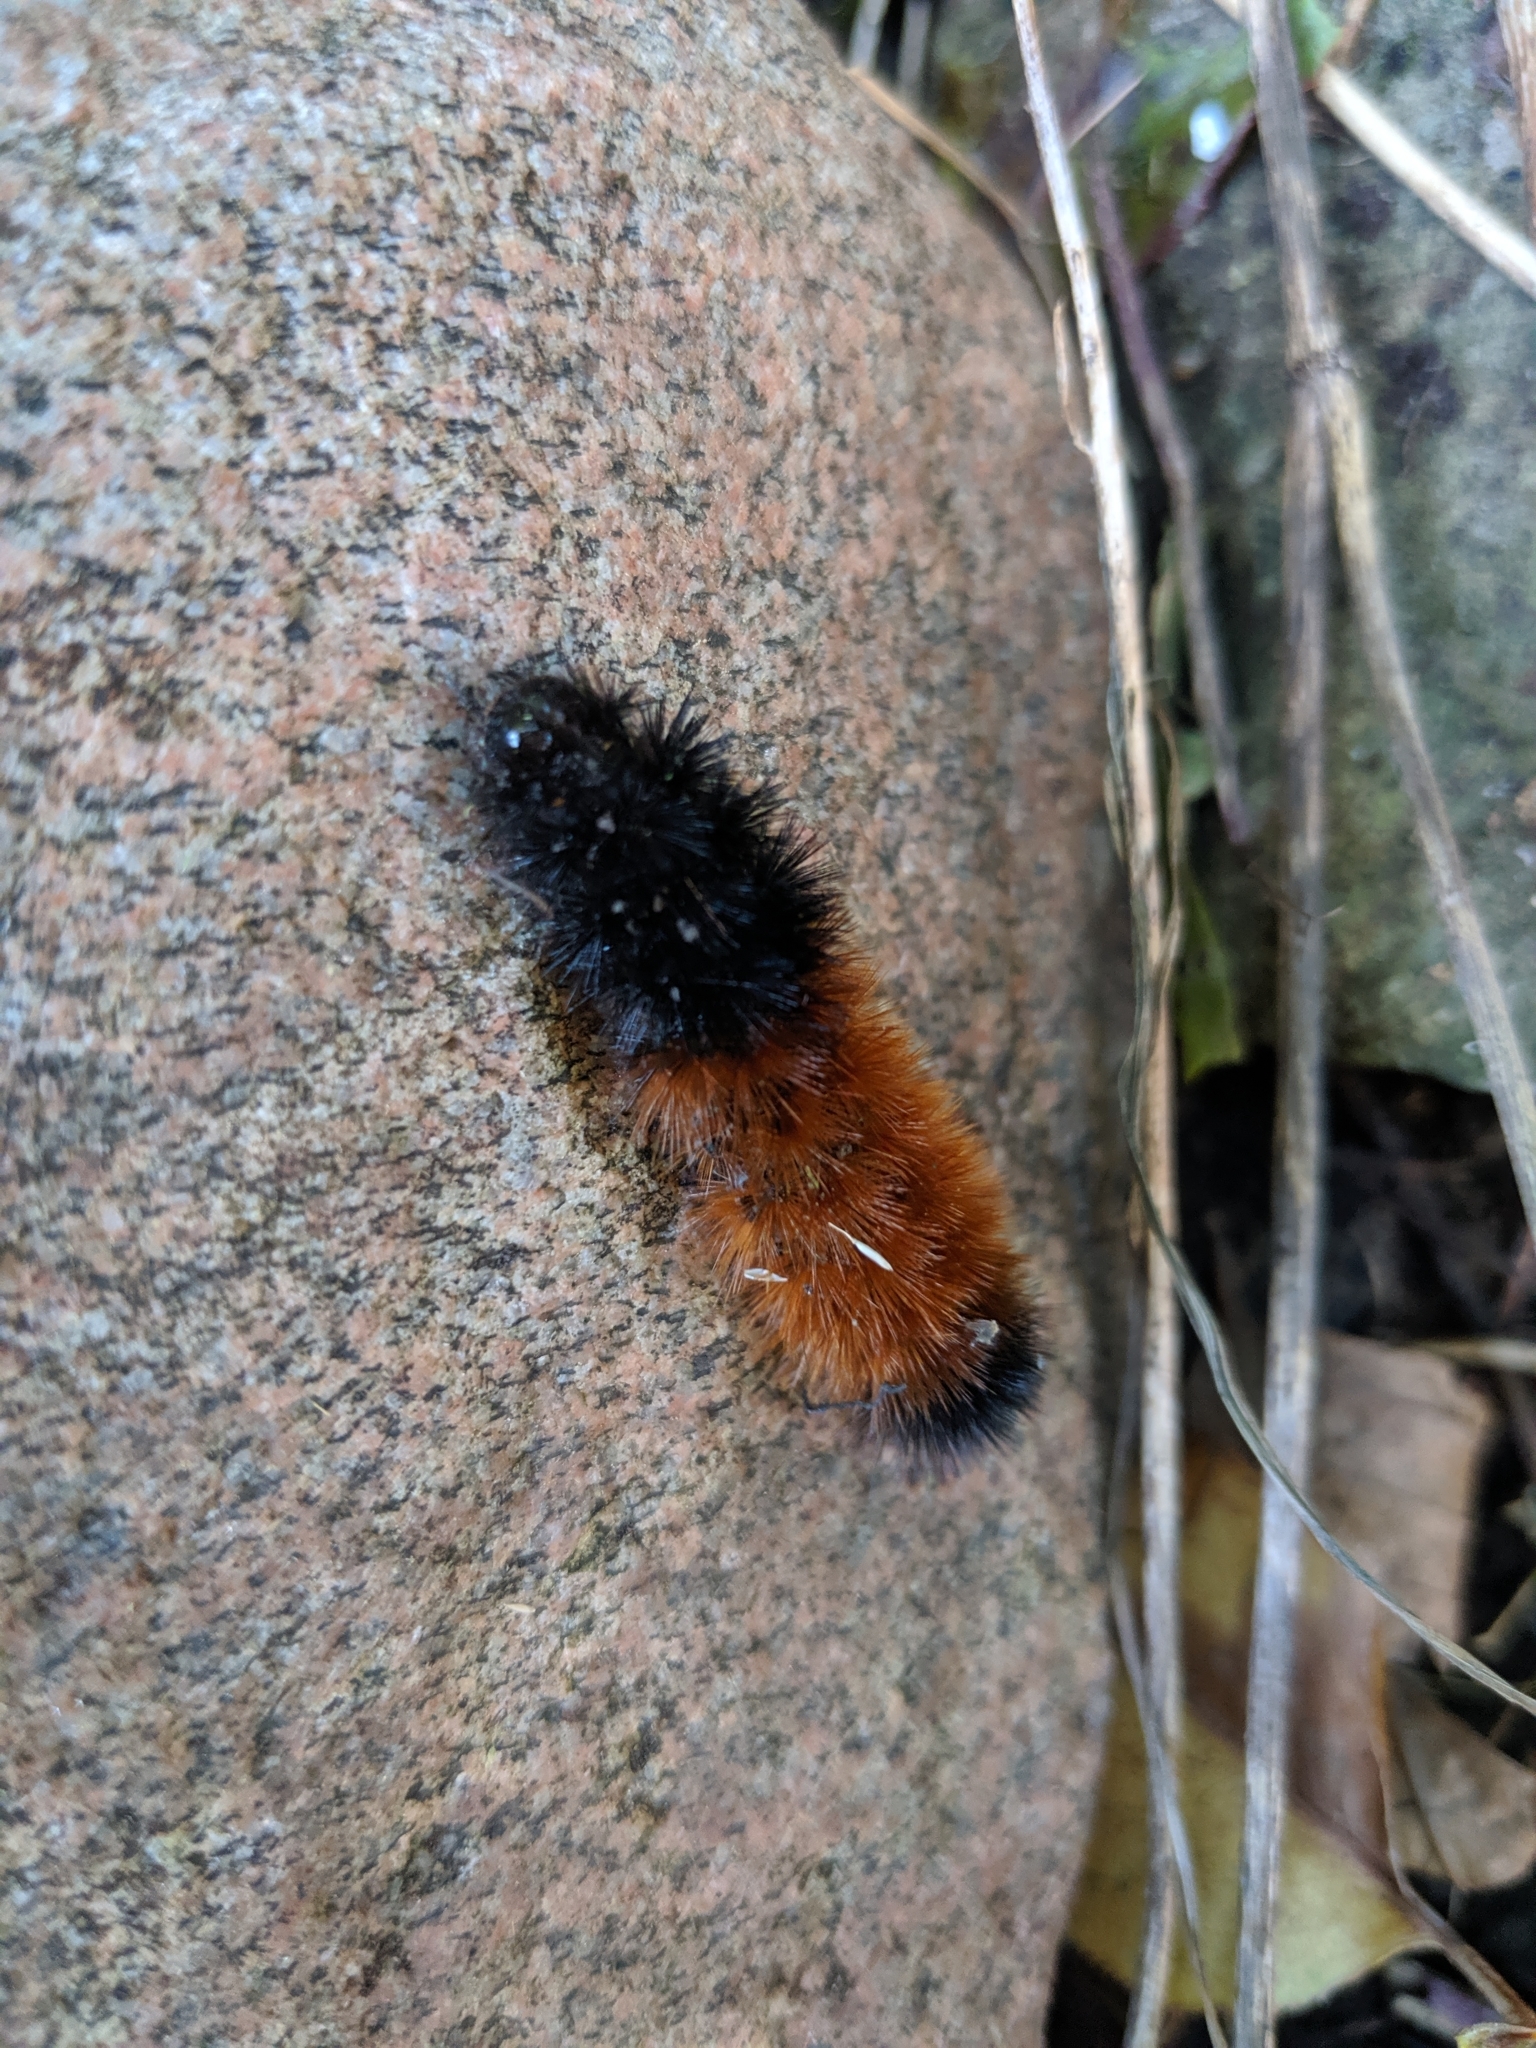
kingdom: Animalia
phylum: Arthropoda
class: Insecta
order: Lepidoptera
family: Erebidae
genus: Pyrrharctia
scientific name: Pyrrharctia isabella
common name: Isabella tiger moth
